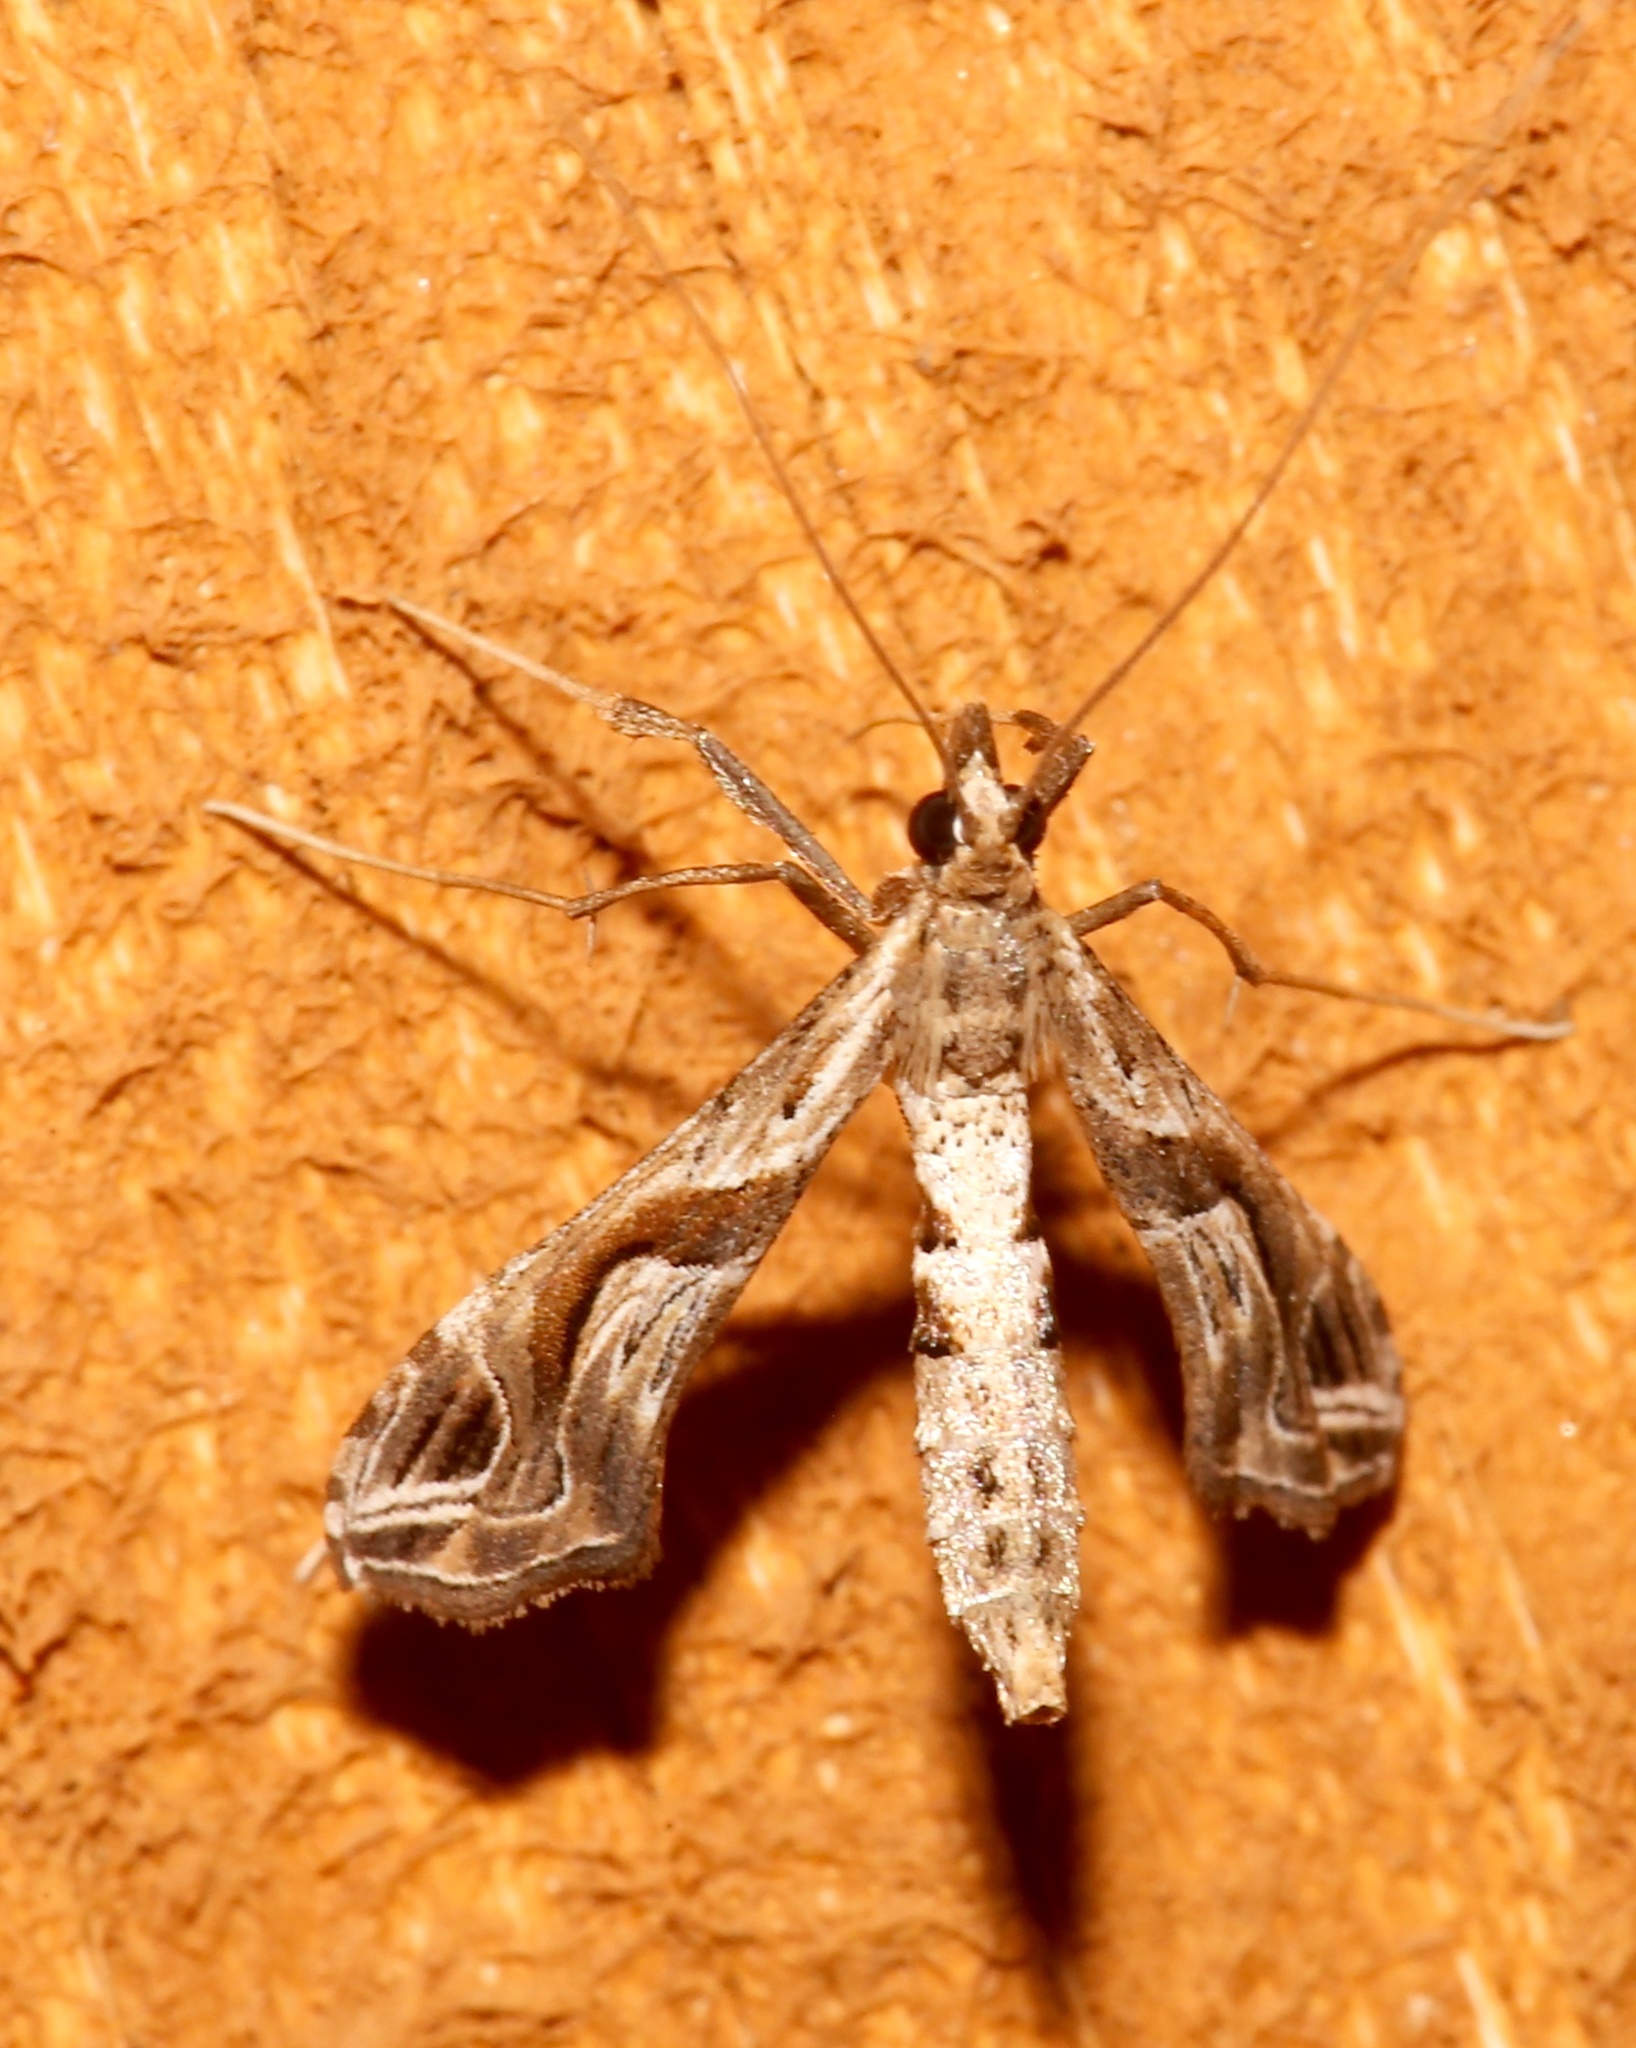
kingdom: Animalia
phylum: Arthropoda
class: Insecta
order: Lepidoptera
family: Crambidae
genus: Lineodes
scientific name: Lineodes integra
